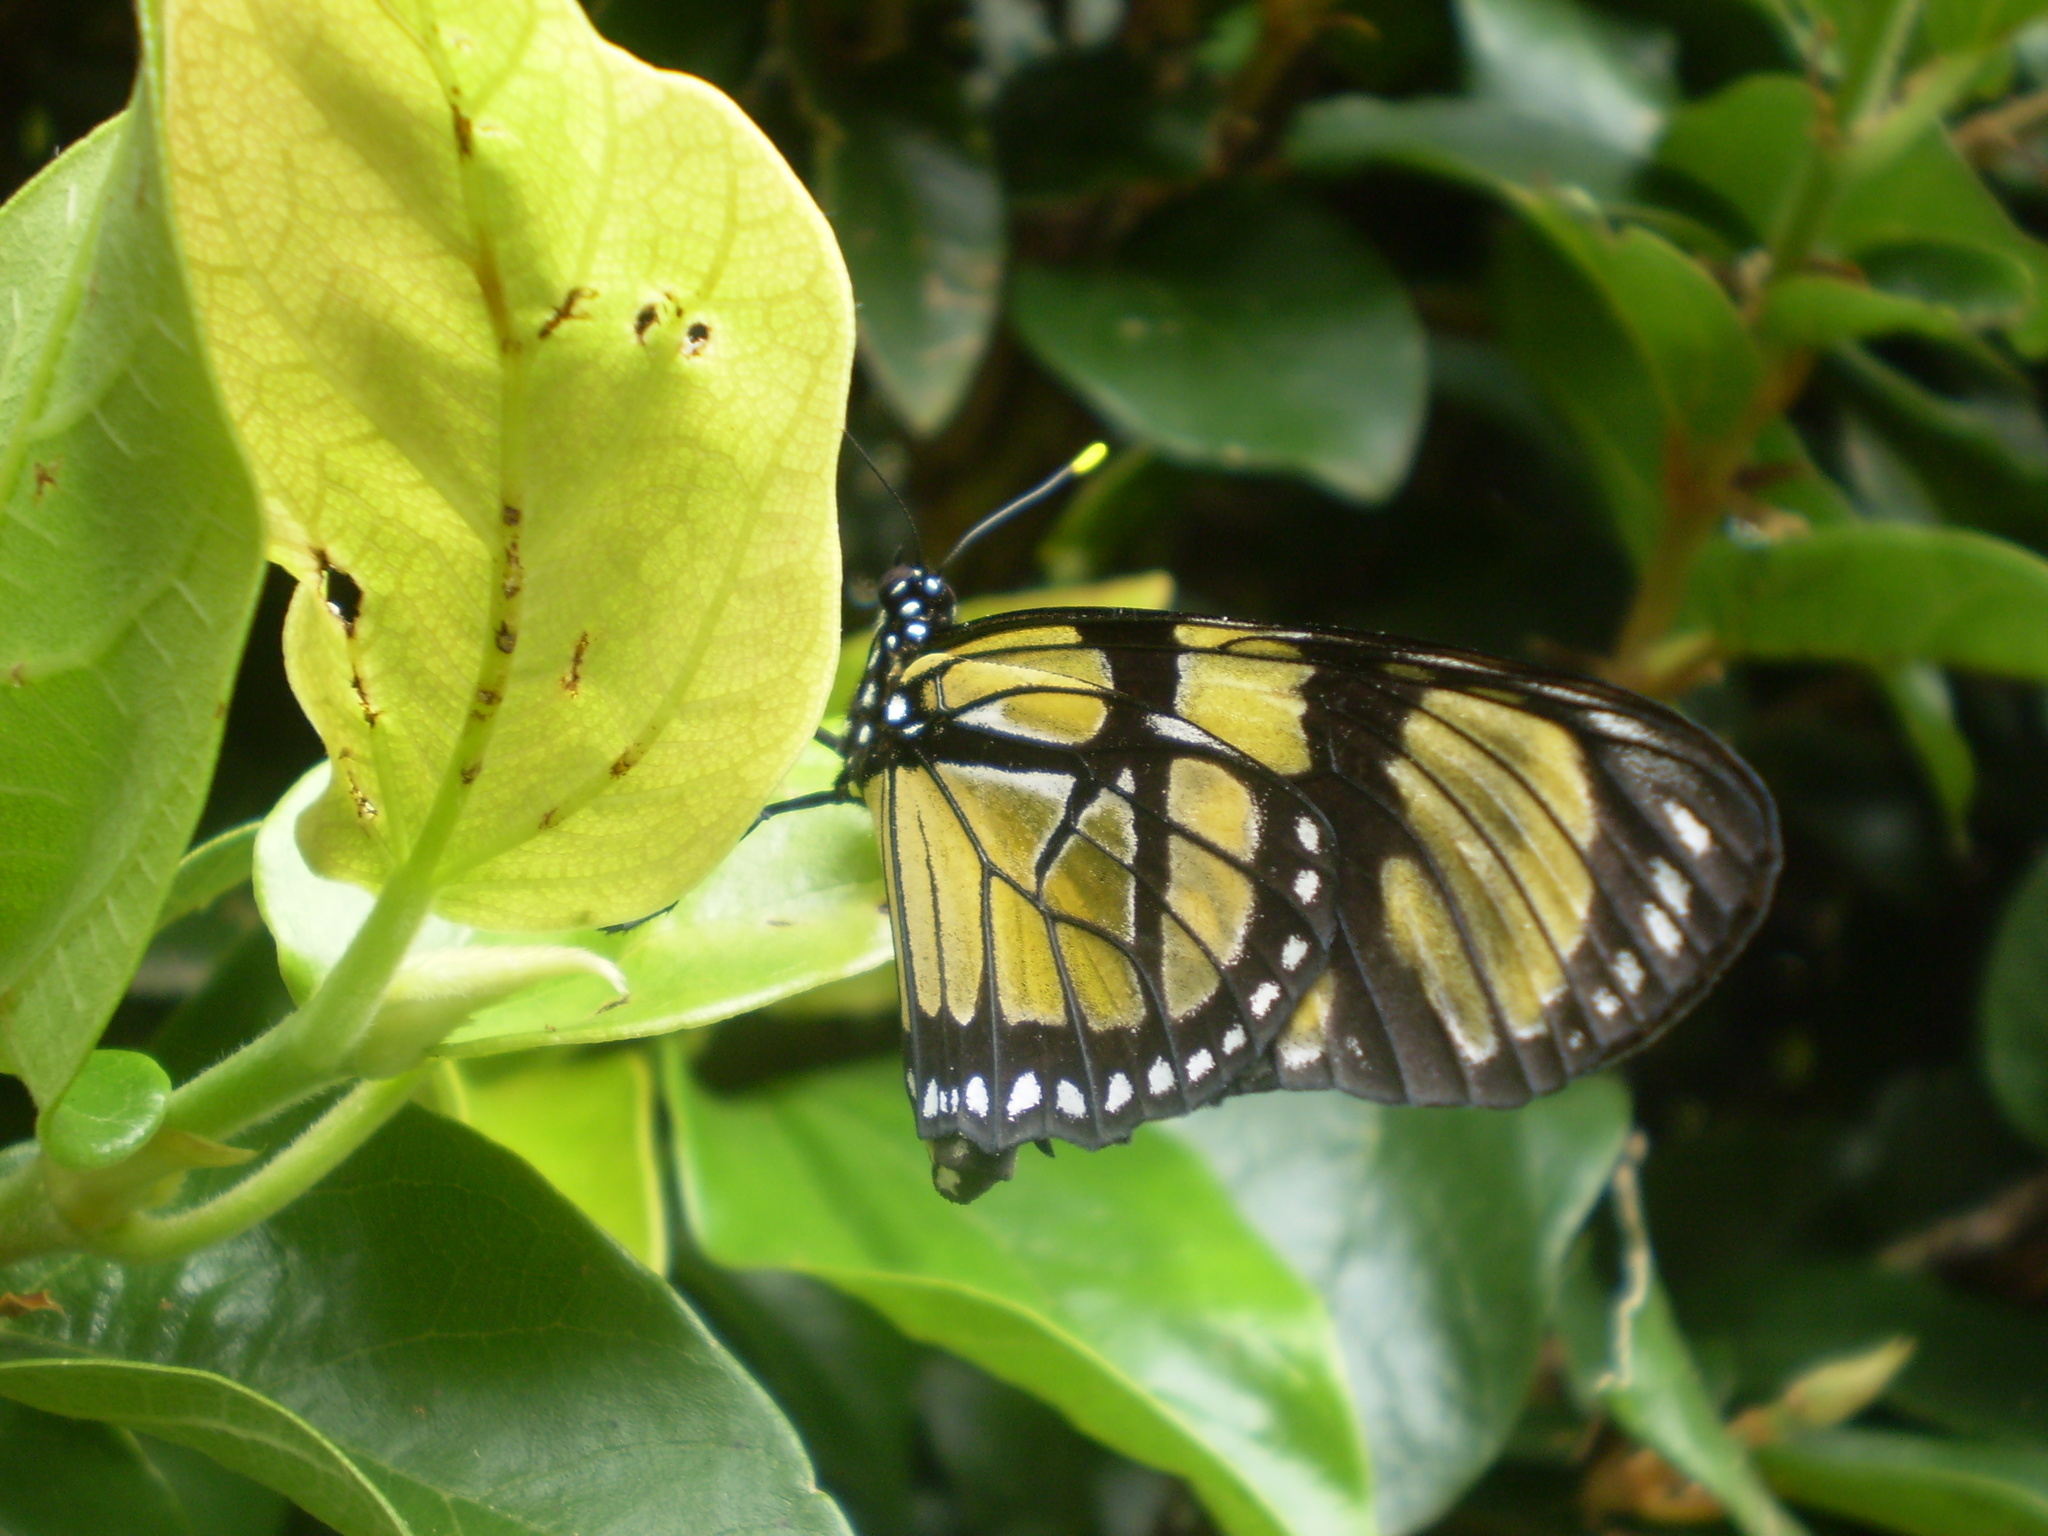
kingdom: Animalia
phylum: Arthropoda
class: Insecta
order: Lepidoptera
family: Nymphalidae
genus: Lycorea
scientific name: Lycorea ilione
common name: Clearwing mimic-queen
